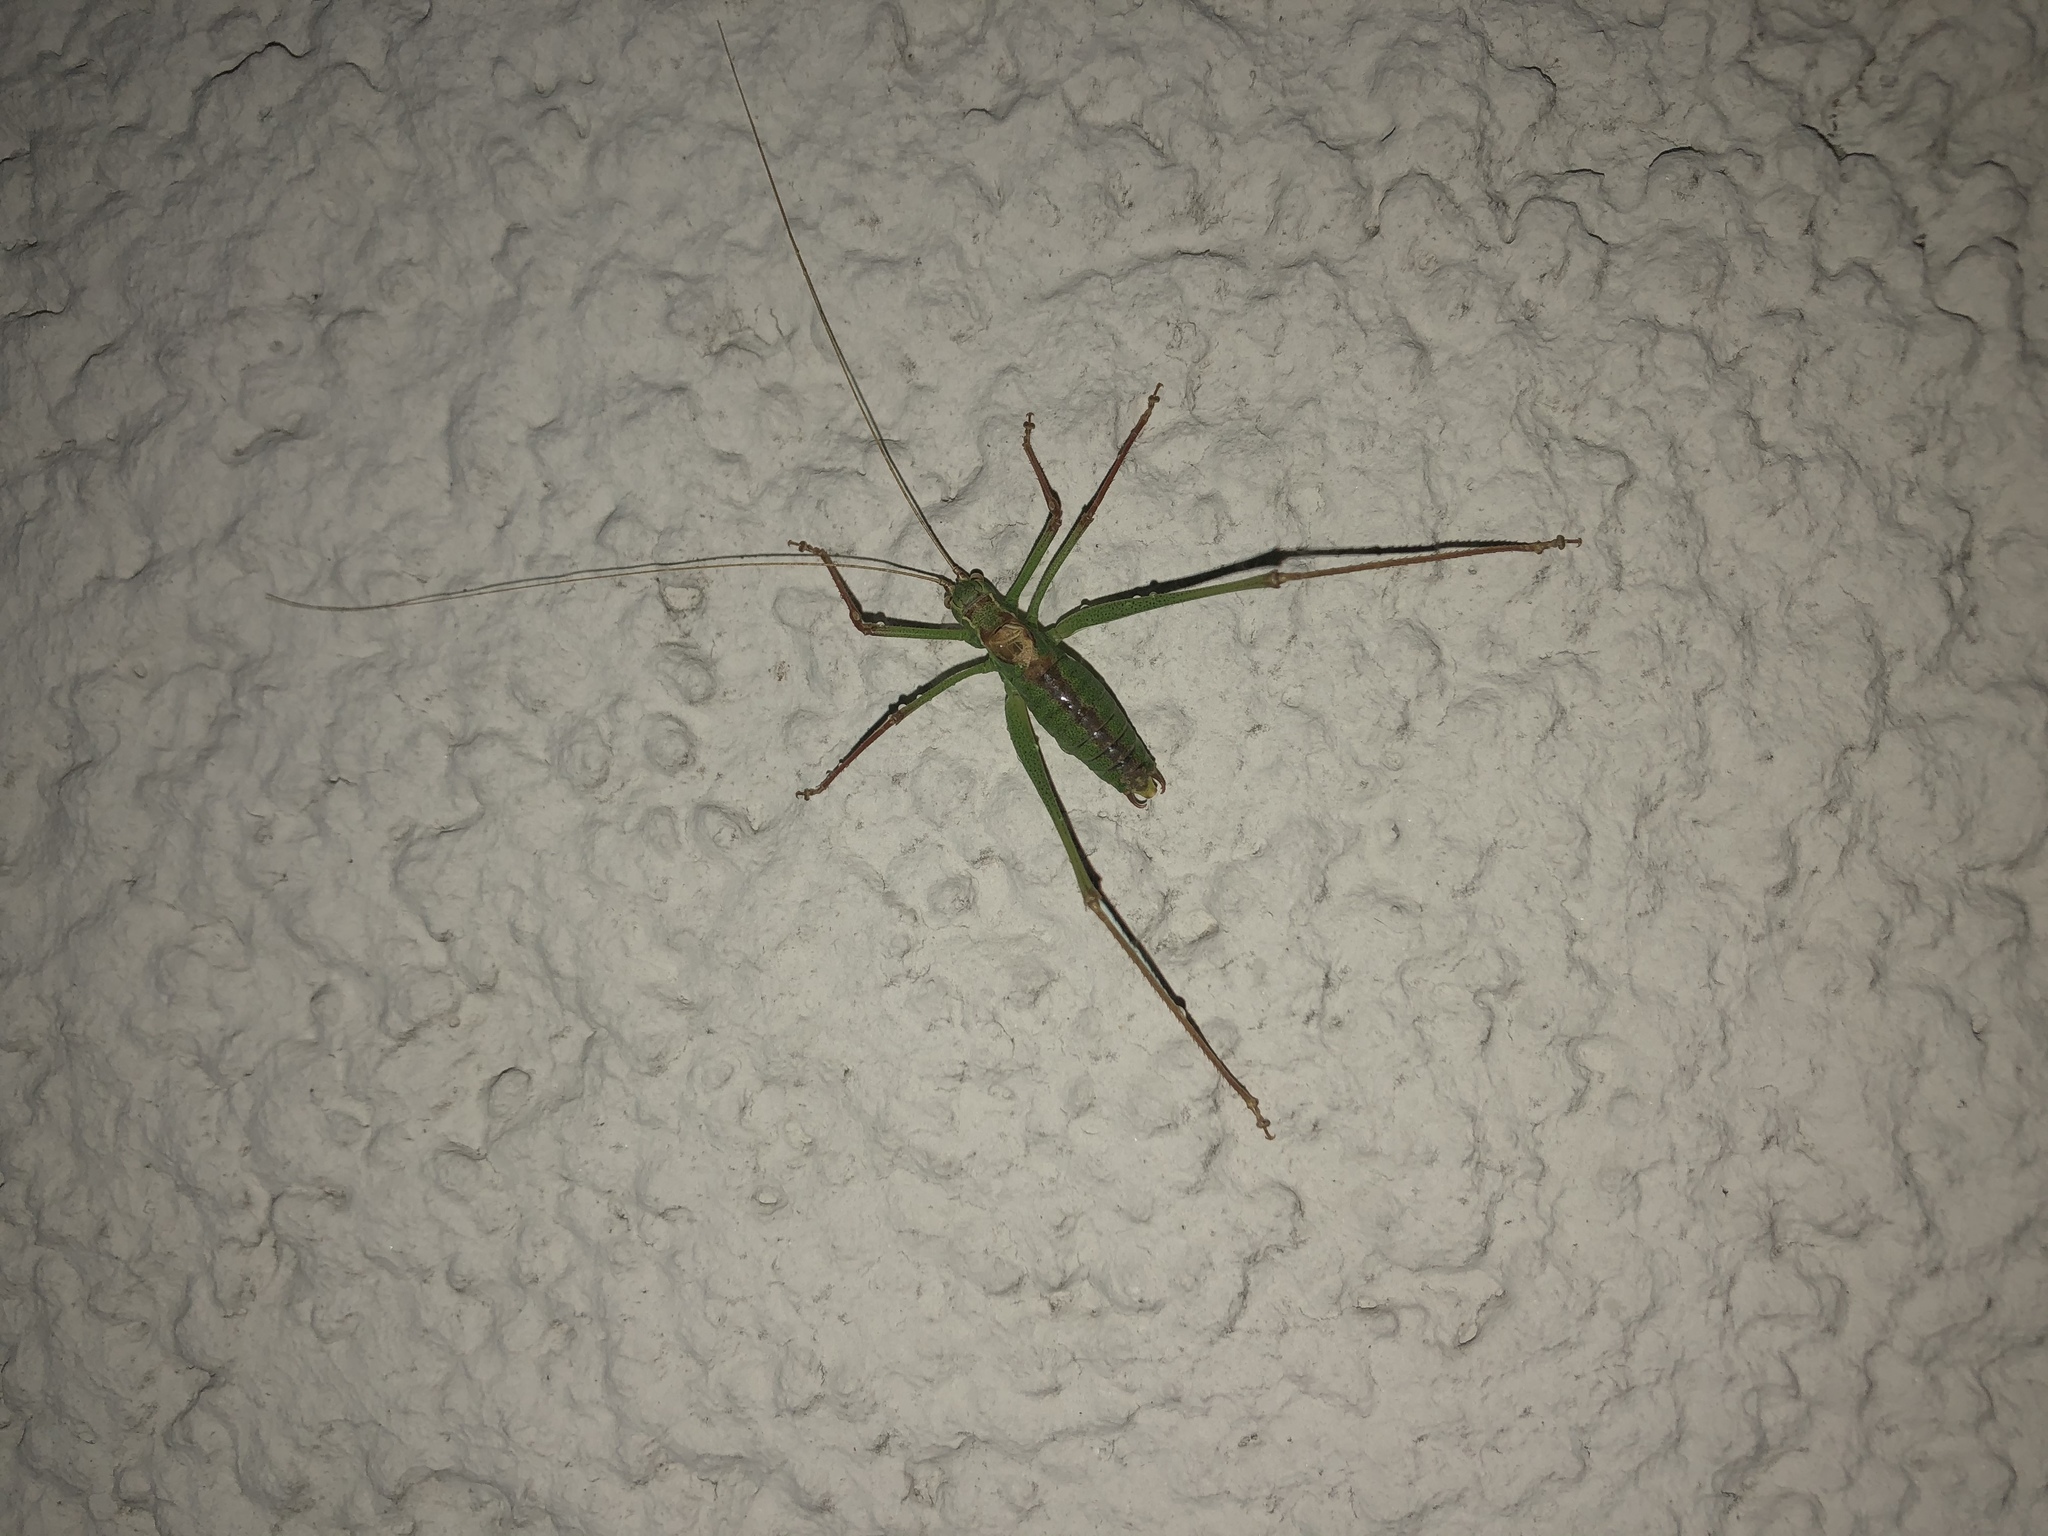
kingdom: Animalia
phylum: Arthropoda
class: Insecta
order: Orthoptera
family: Tettigoniidae
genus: Leptophyes
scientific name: Leptophyes punctatissima
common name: Speckled bush-cricket
